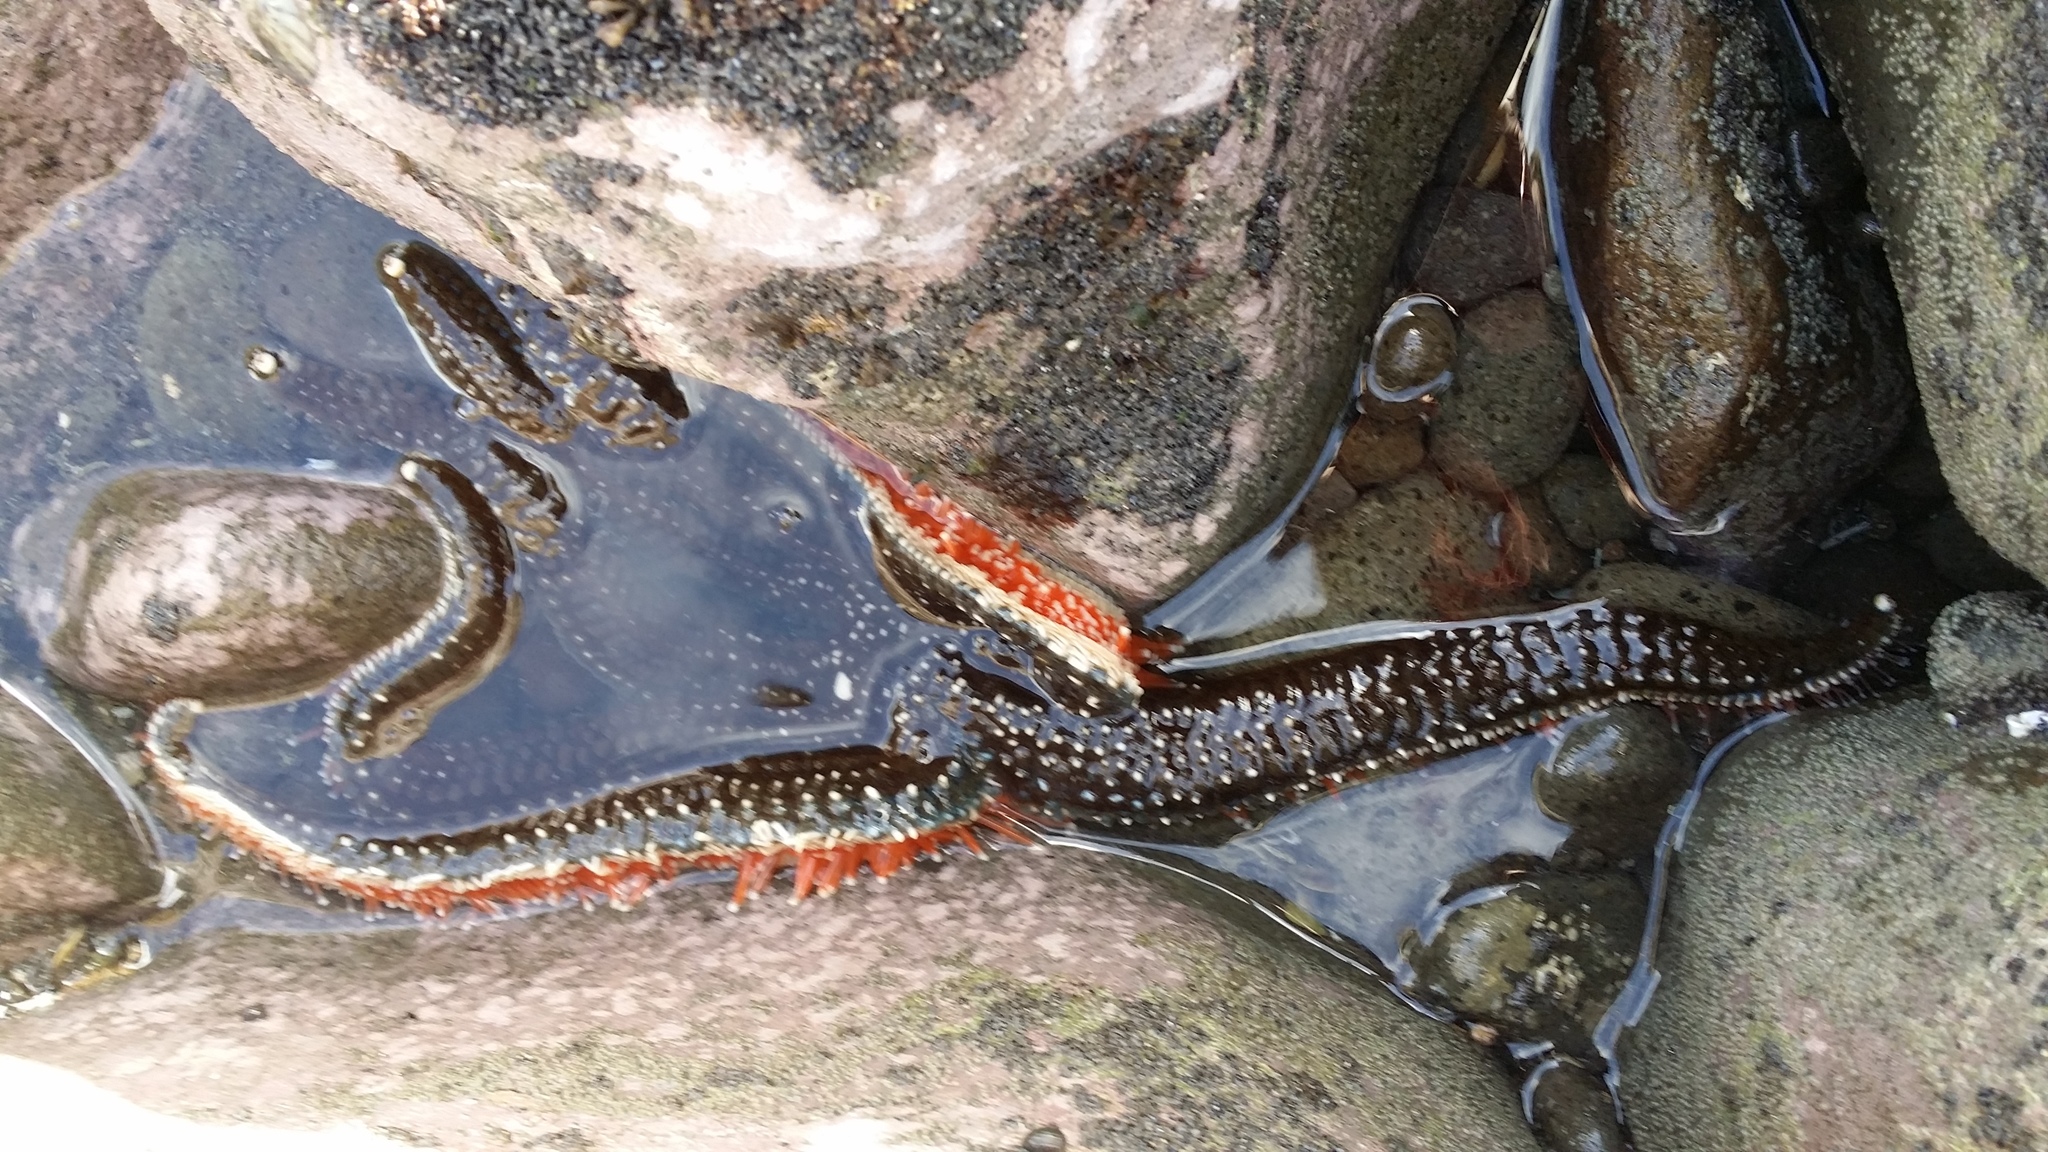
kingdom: Animalia
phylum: Echinodermata
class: Asteroidea
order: Forcipulatida
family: Asteriidae
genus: Astrostole
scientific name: Astrostole scabra
